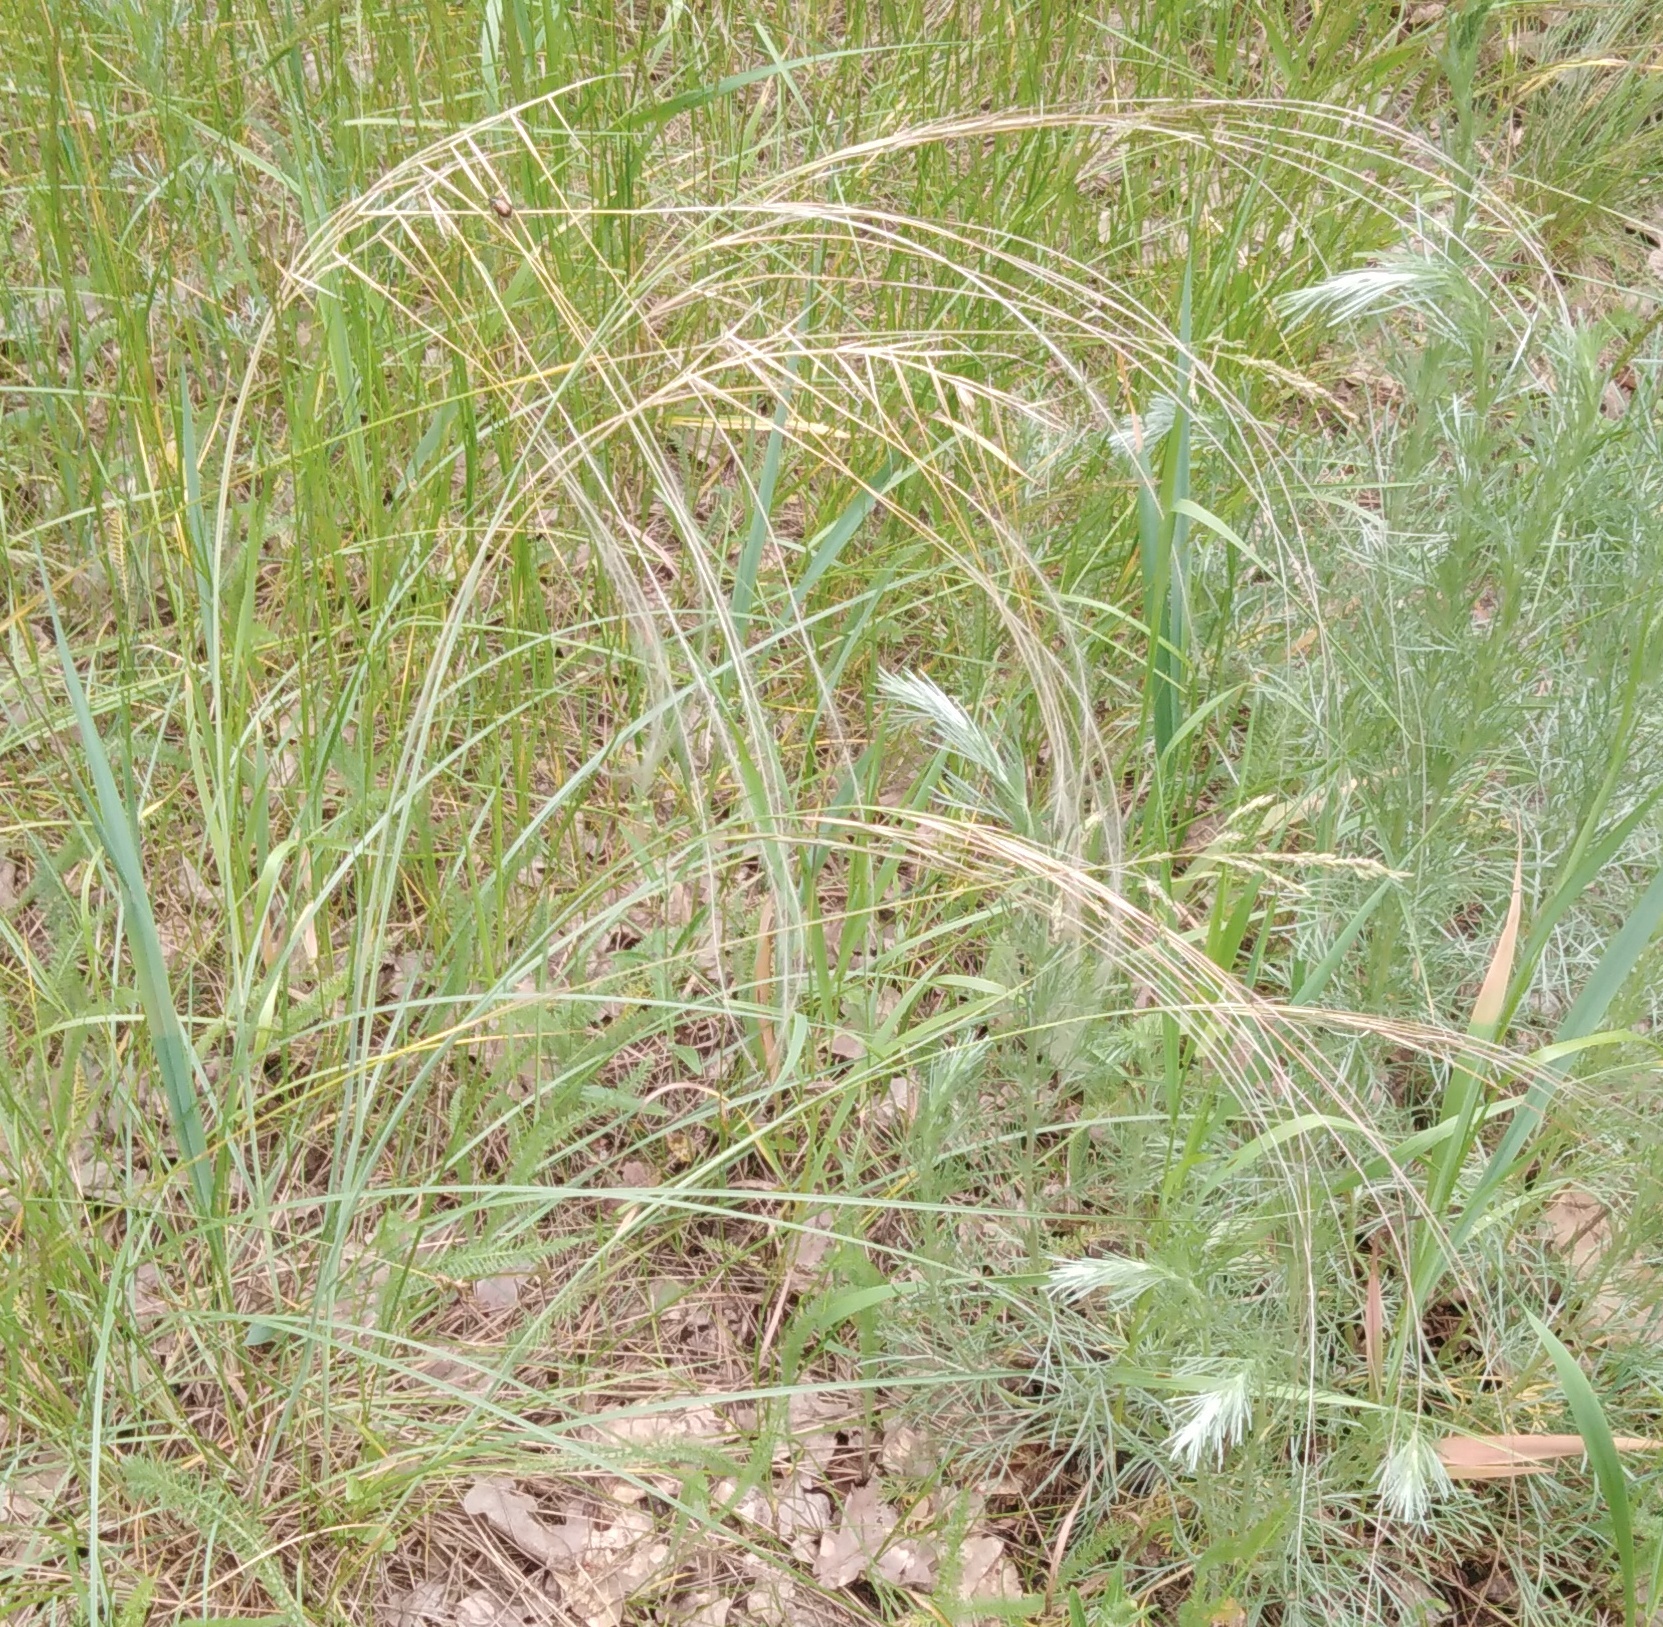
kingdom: Plantae
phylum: Tracheophyta
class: Liliopsida
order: Poales
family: Poaceae
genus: Stipa
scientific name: Stipa pennata
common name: European feather grass
